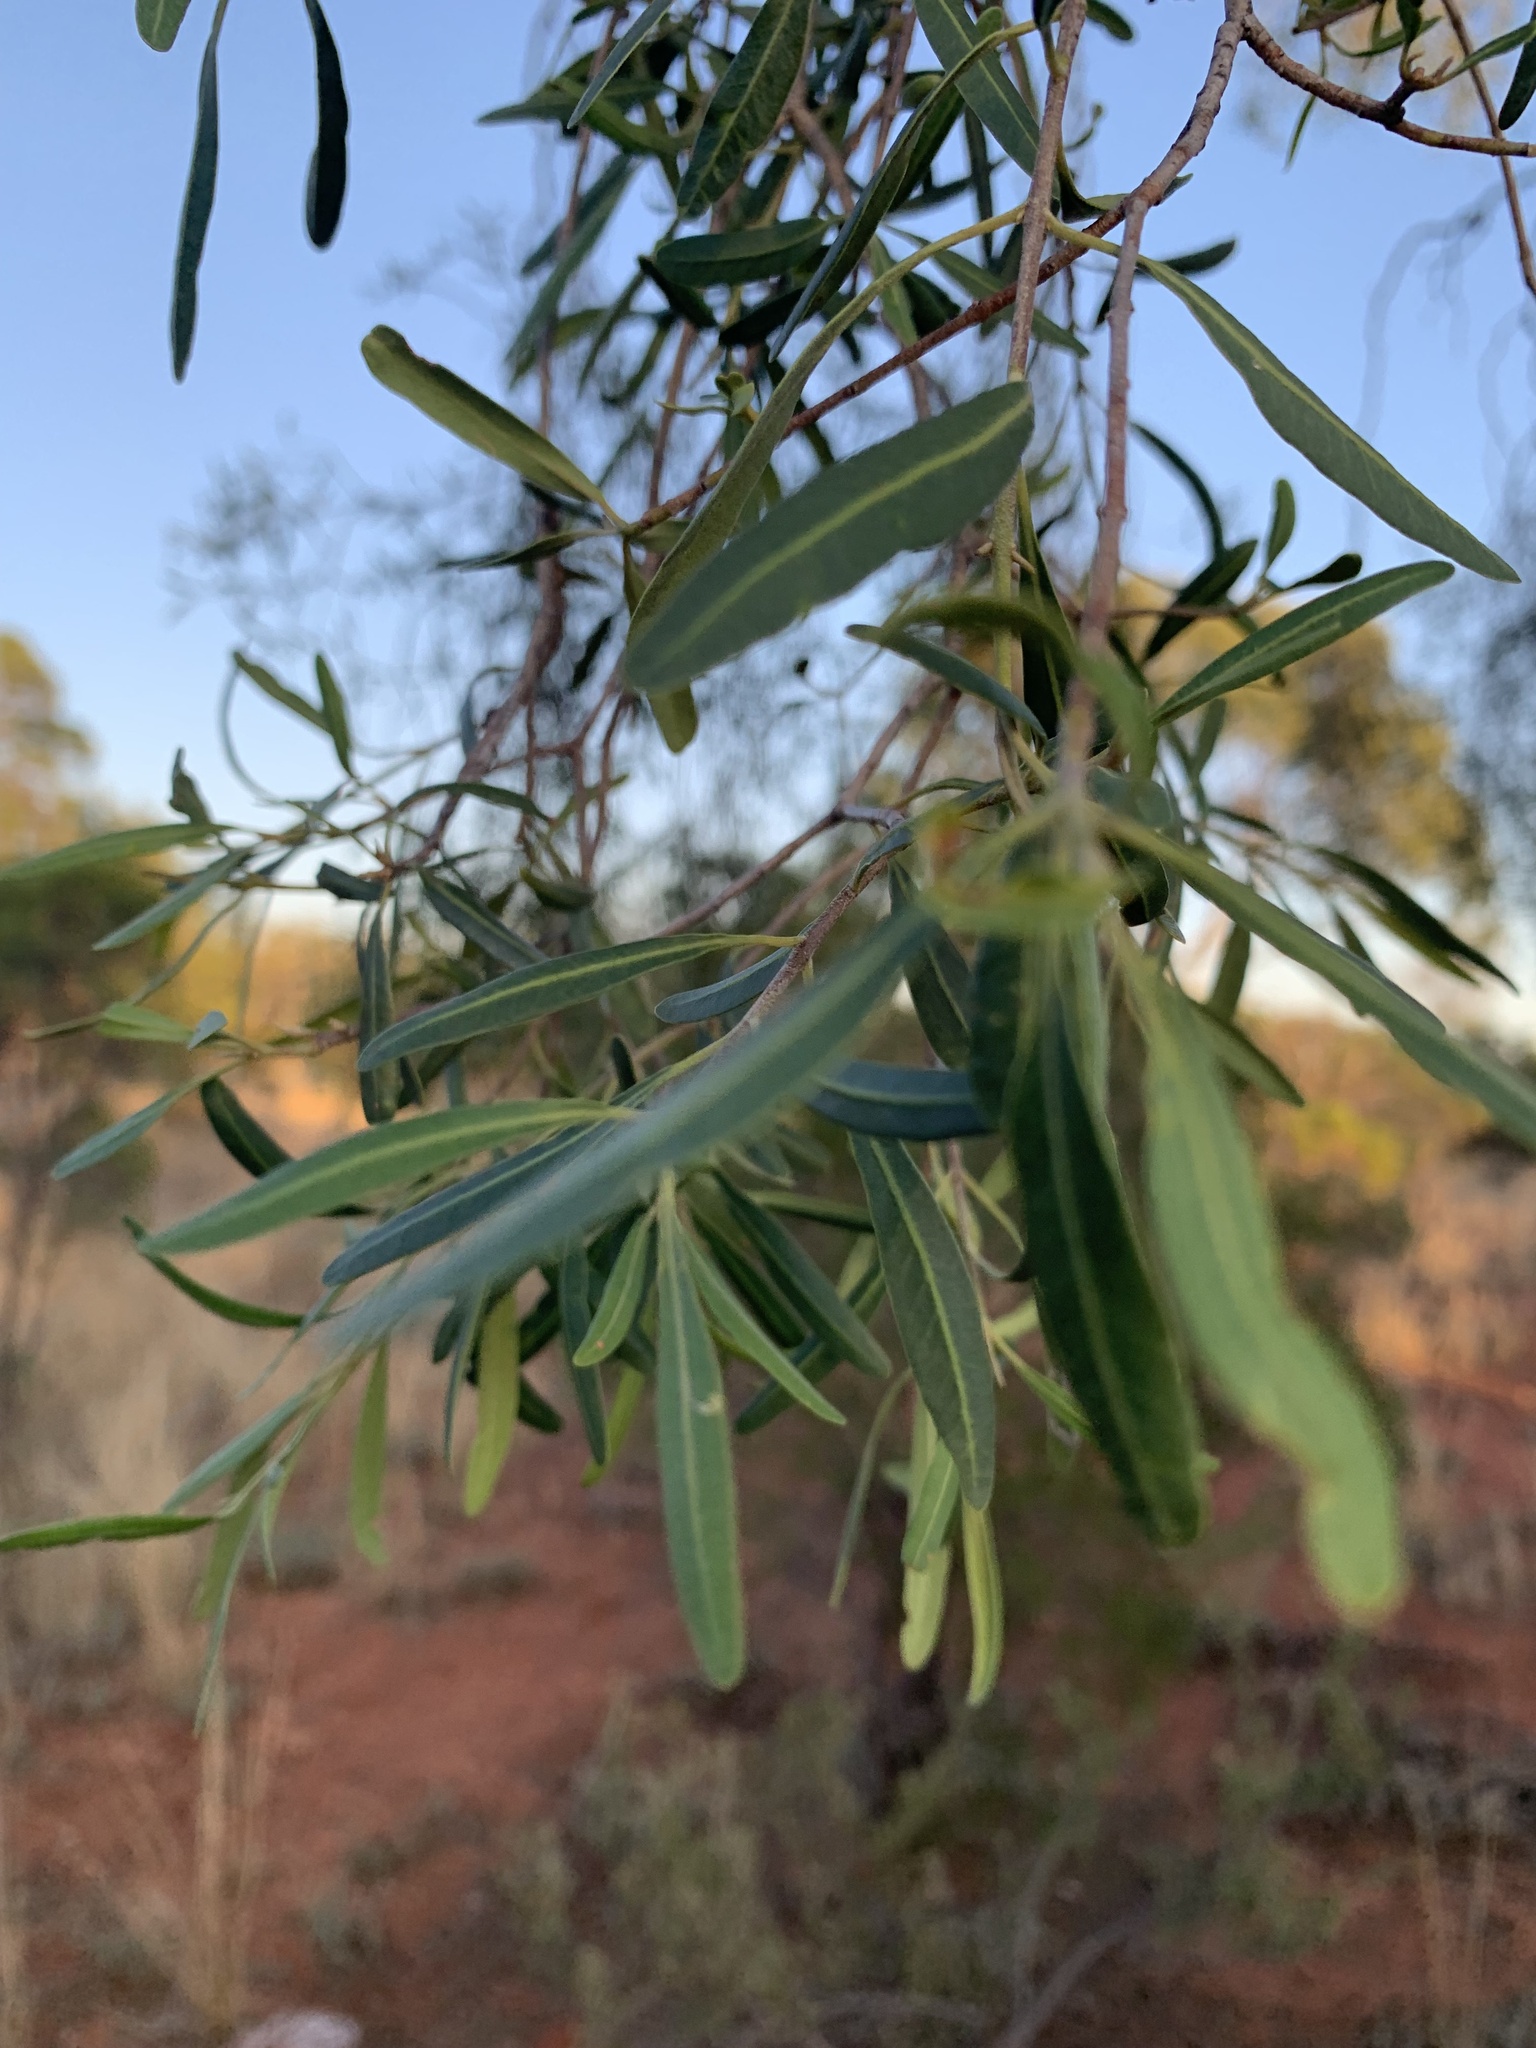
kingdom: Plantae
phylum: Tracheophyta
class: Magnoliopsida
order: Sapindales
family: Rutaceae
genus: Flindersia
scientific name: Flindersia maculosa
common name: Leopardtree
